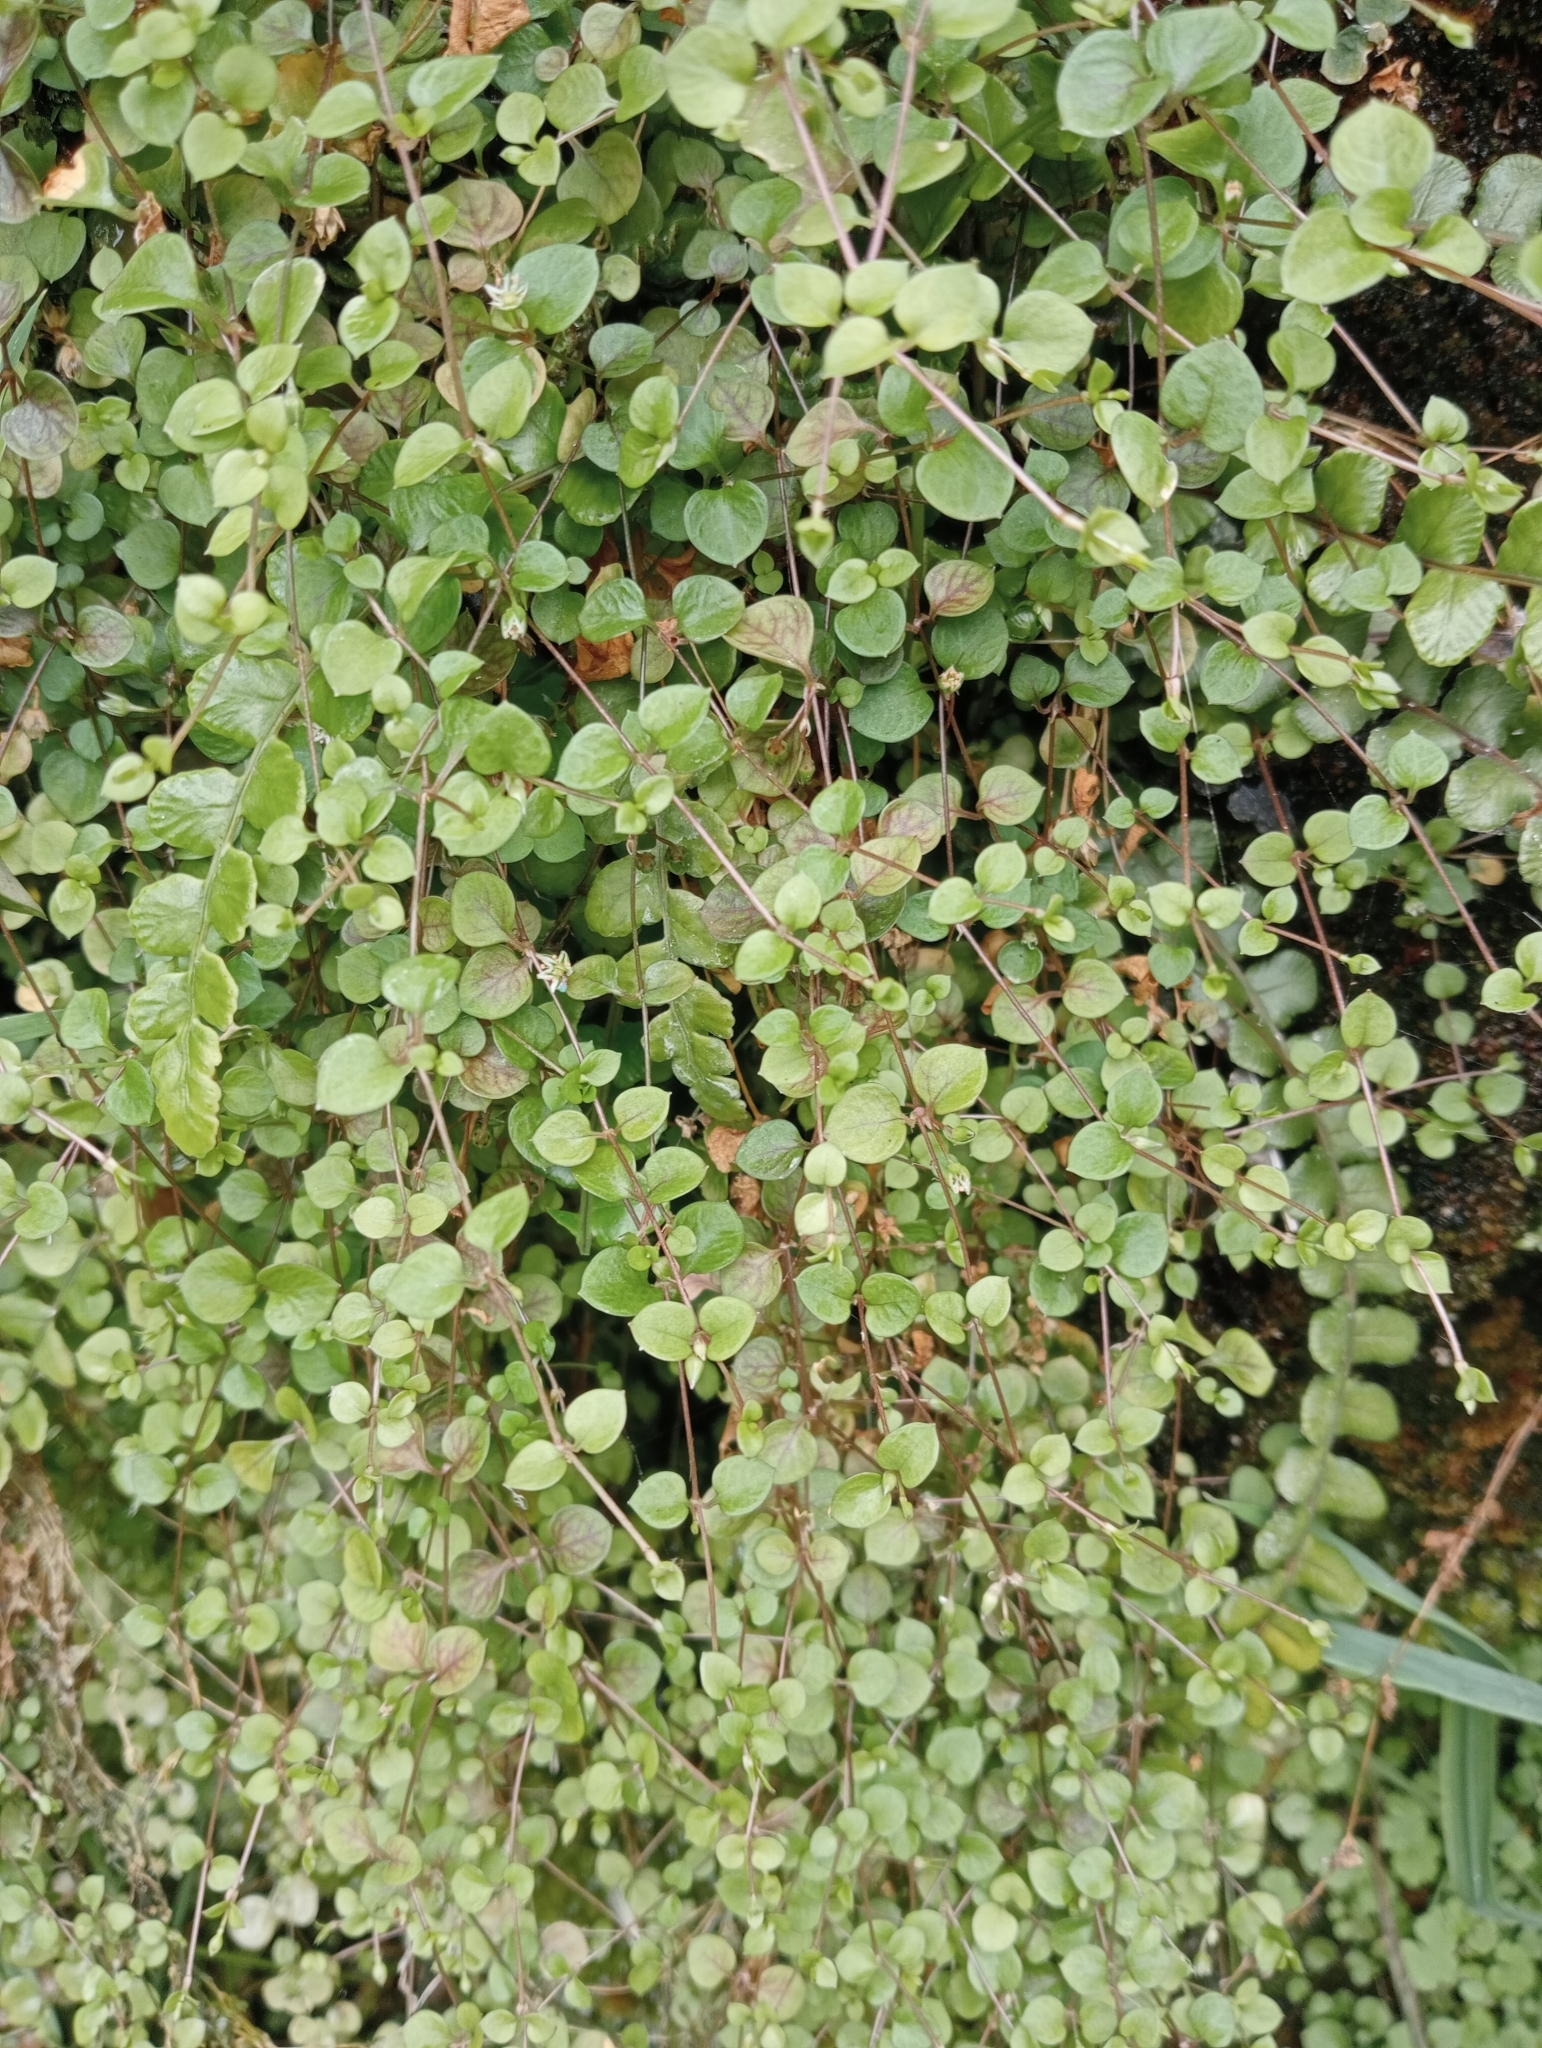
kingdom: Plantae
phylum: Tracheophyta
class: Magnoliopsida
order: Caryophyllales
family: Caryophyllaceae
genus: Stellaria
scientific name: Stellaria parviflora
